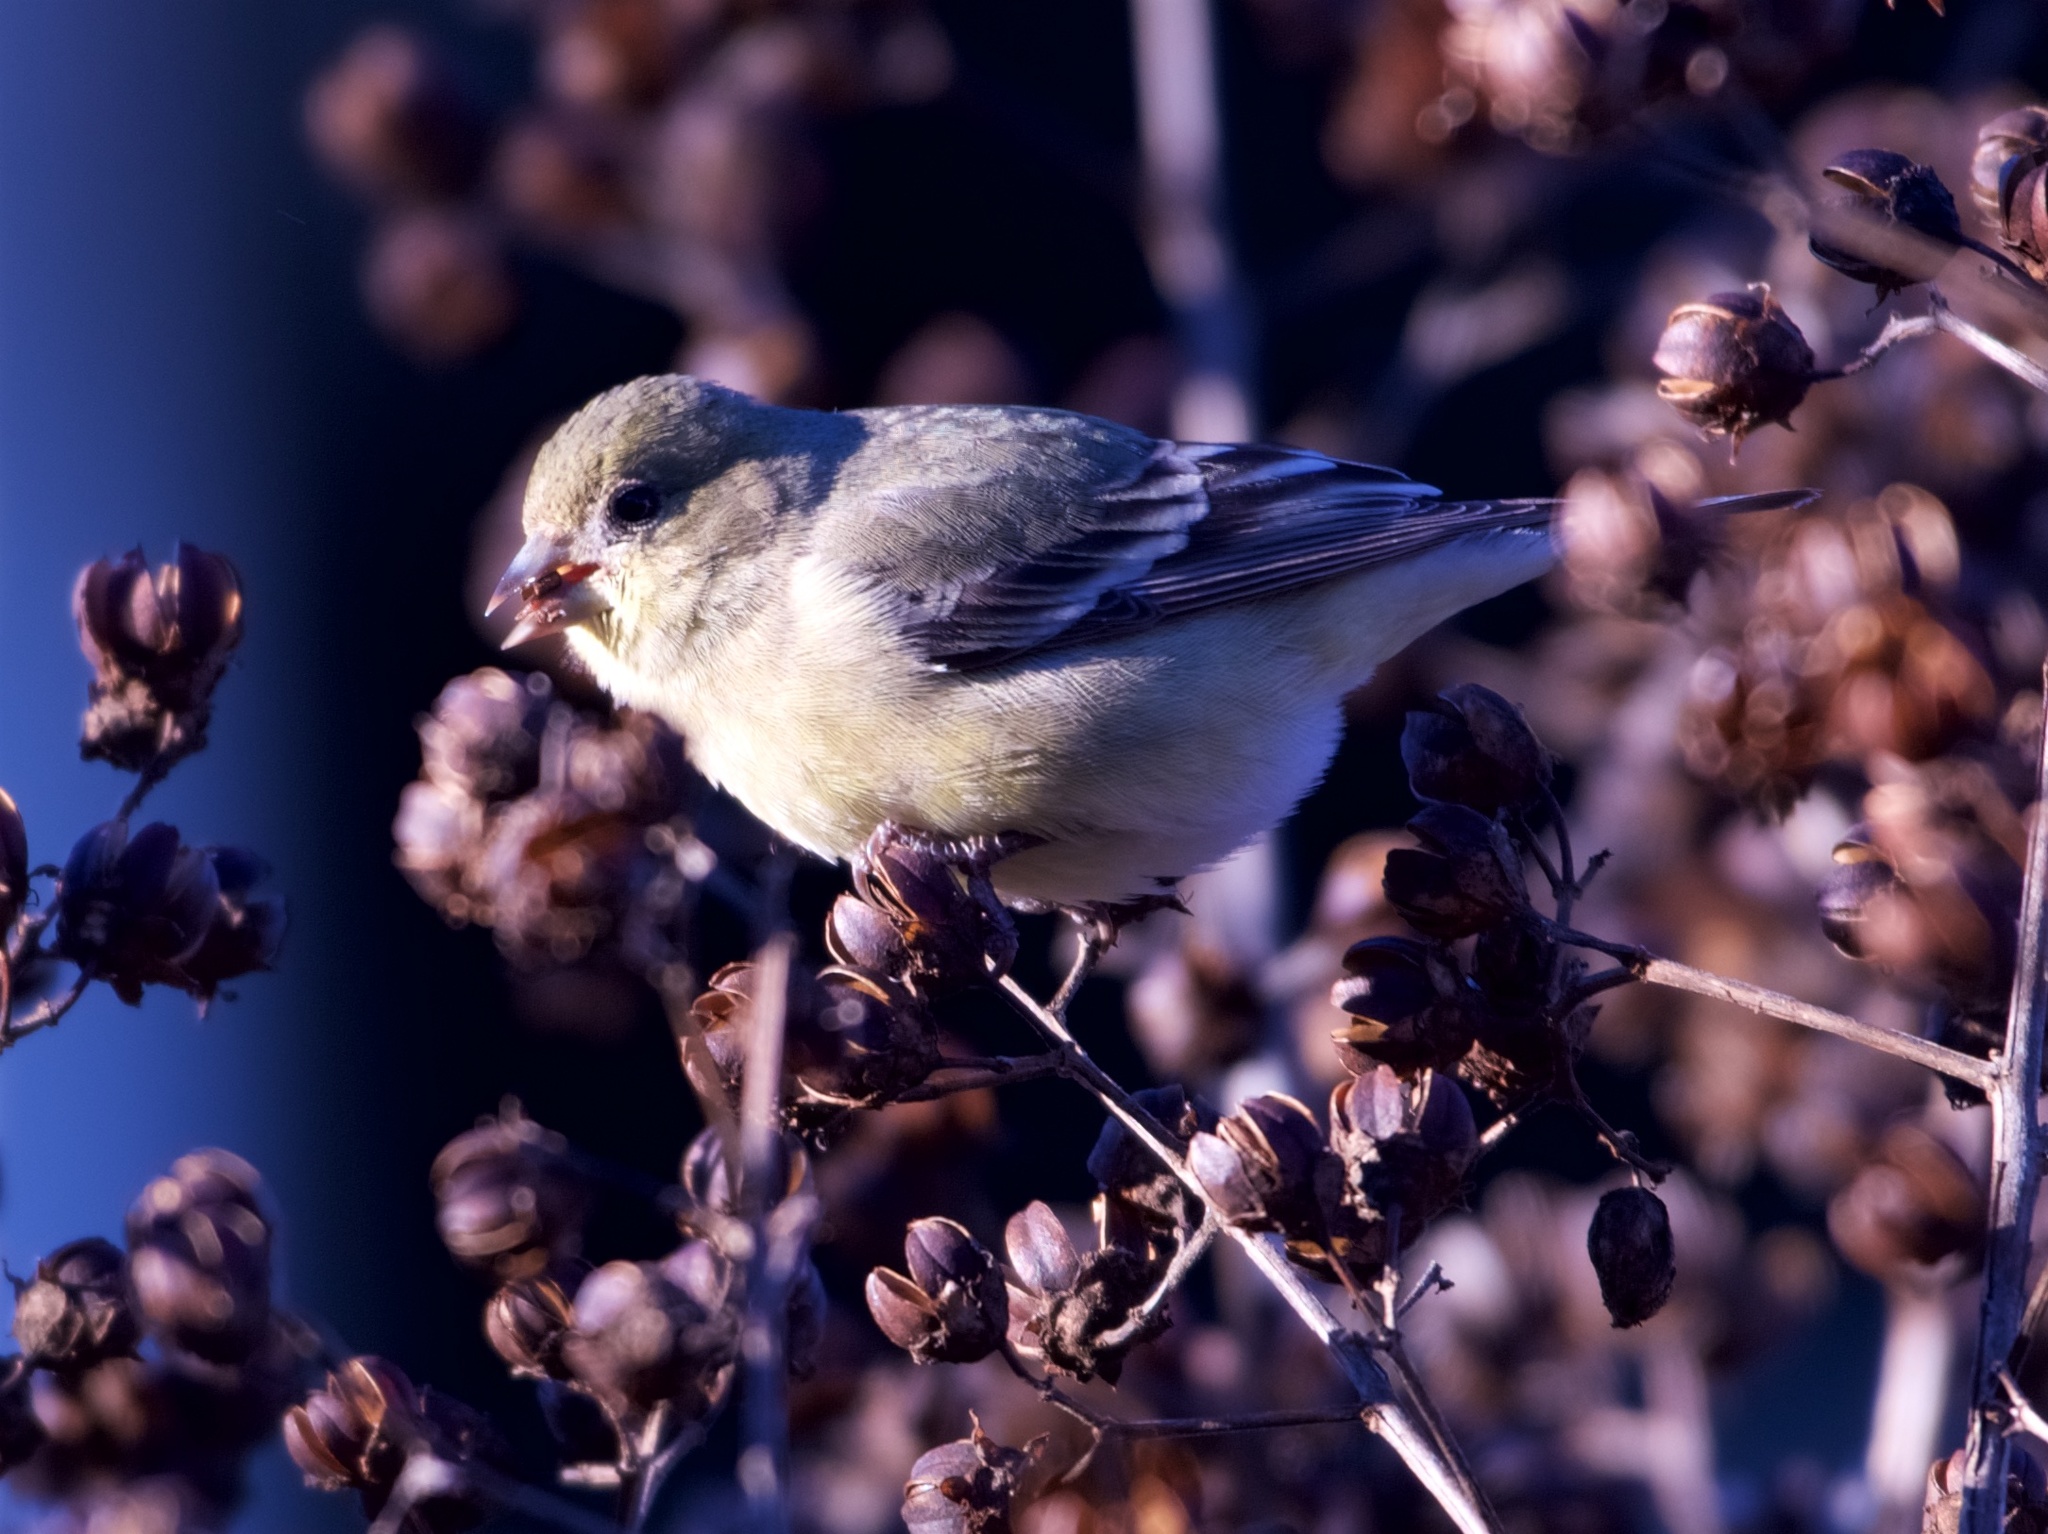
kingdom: Animalia
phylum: Chordata
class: Aves
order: Passeriformes
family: Fringillidae
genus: Spinus
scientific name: Spinus psaltria
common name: Lesser goldfinch
